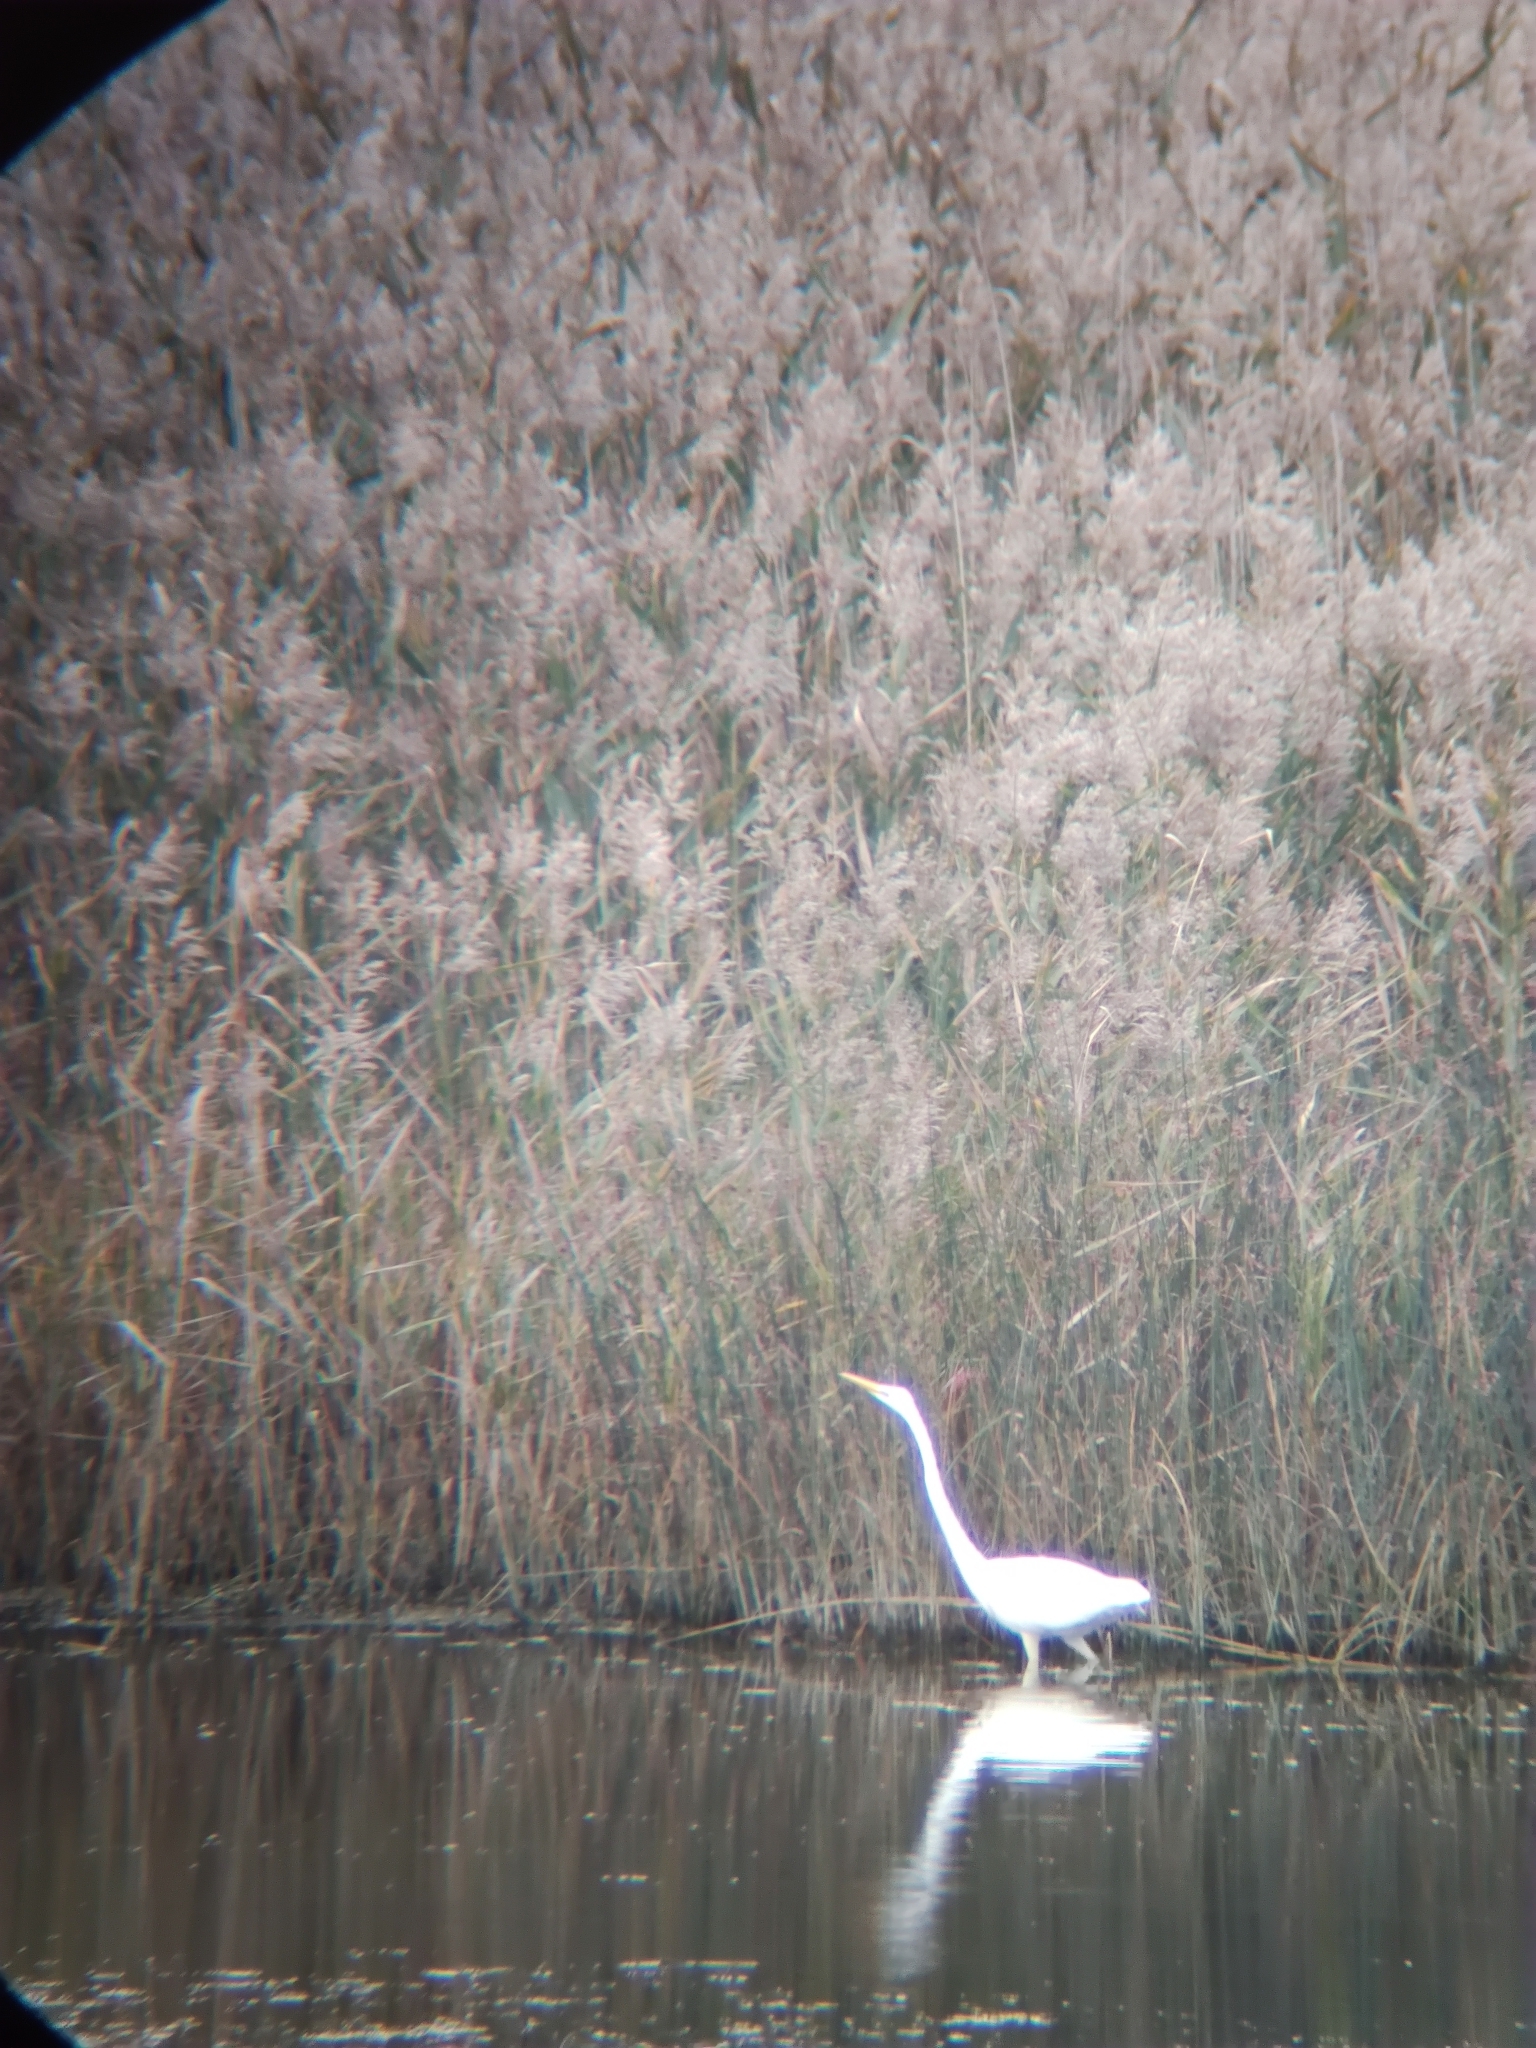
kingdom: Animalia
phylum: Chordata
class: Aves
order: Pelecaniformes
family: Ardeidae
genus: Ardea
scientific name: Ardea alba
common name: Great egret
